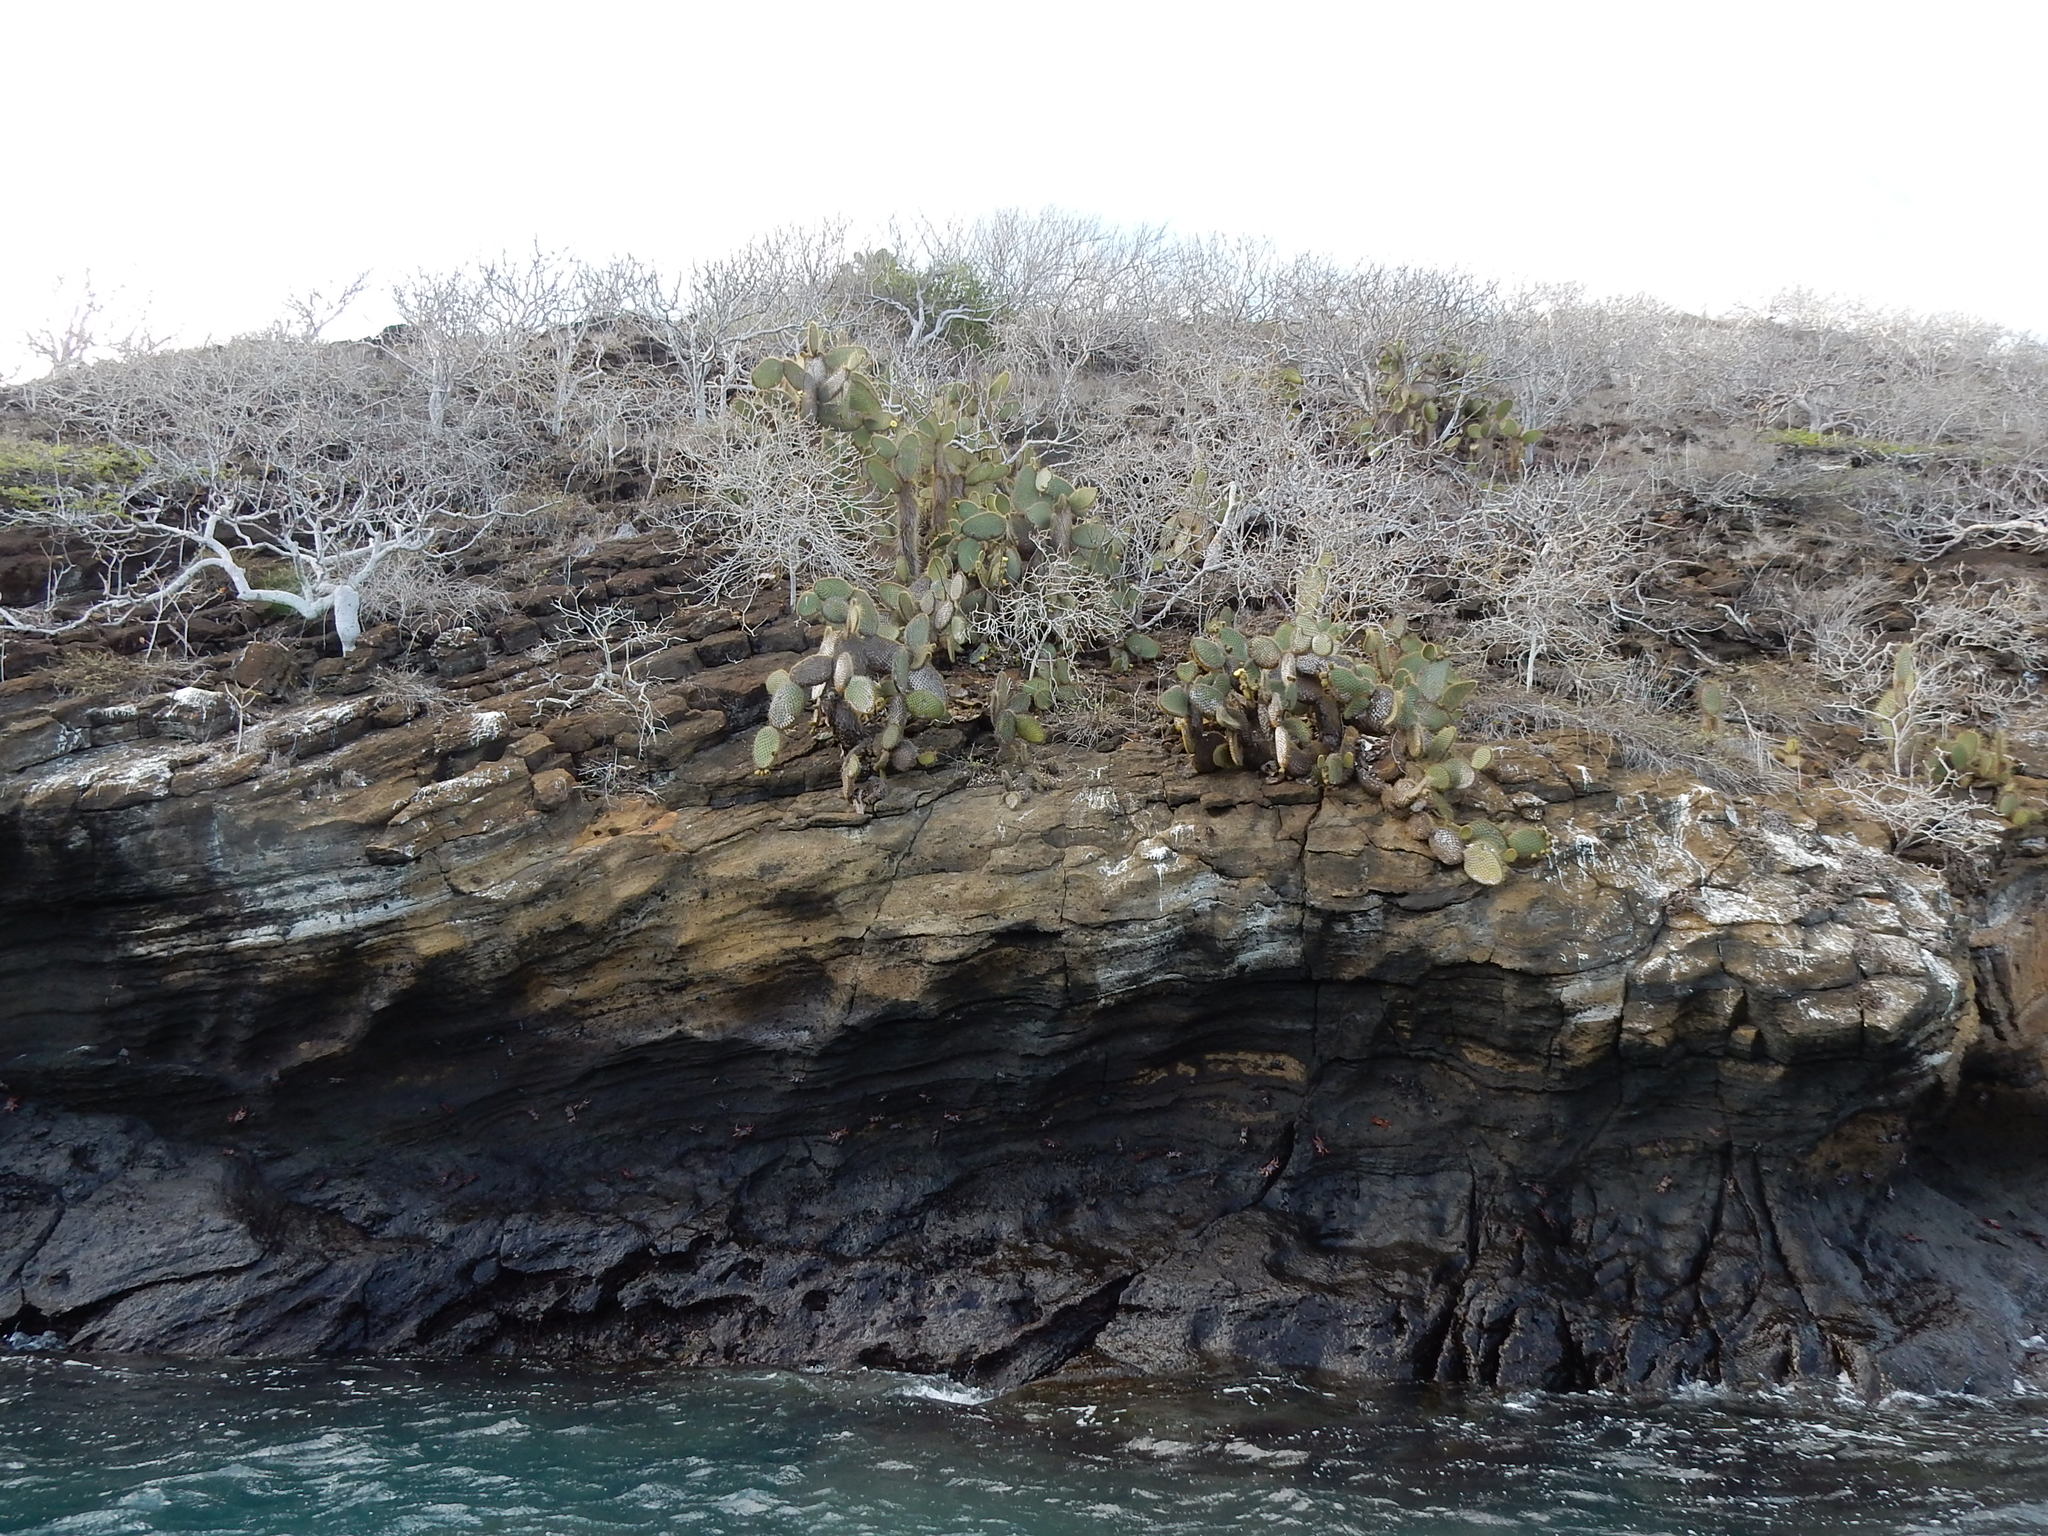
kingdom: Plantae
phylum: Tracheophyta
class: Magnoliopsida
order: Caryophyllales
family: Cactaceae
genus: Opuntia
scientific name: Opuntia galapageia
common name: Galápagos prickly pear
